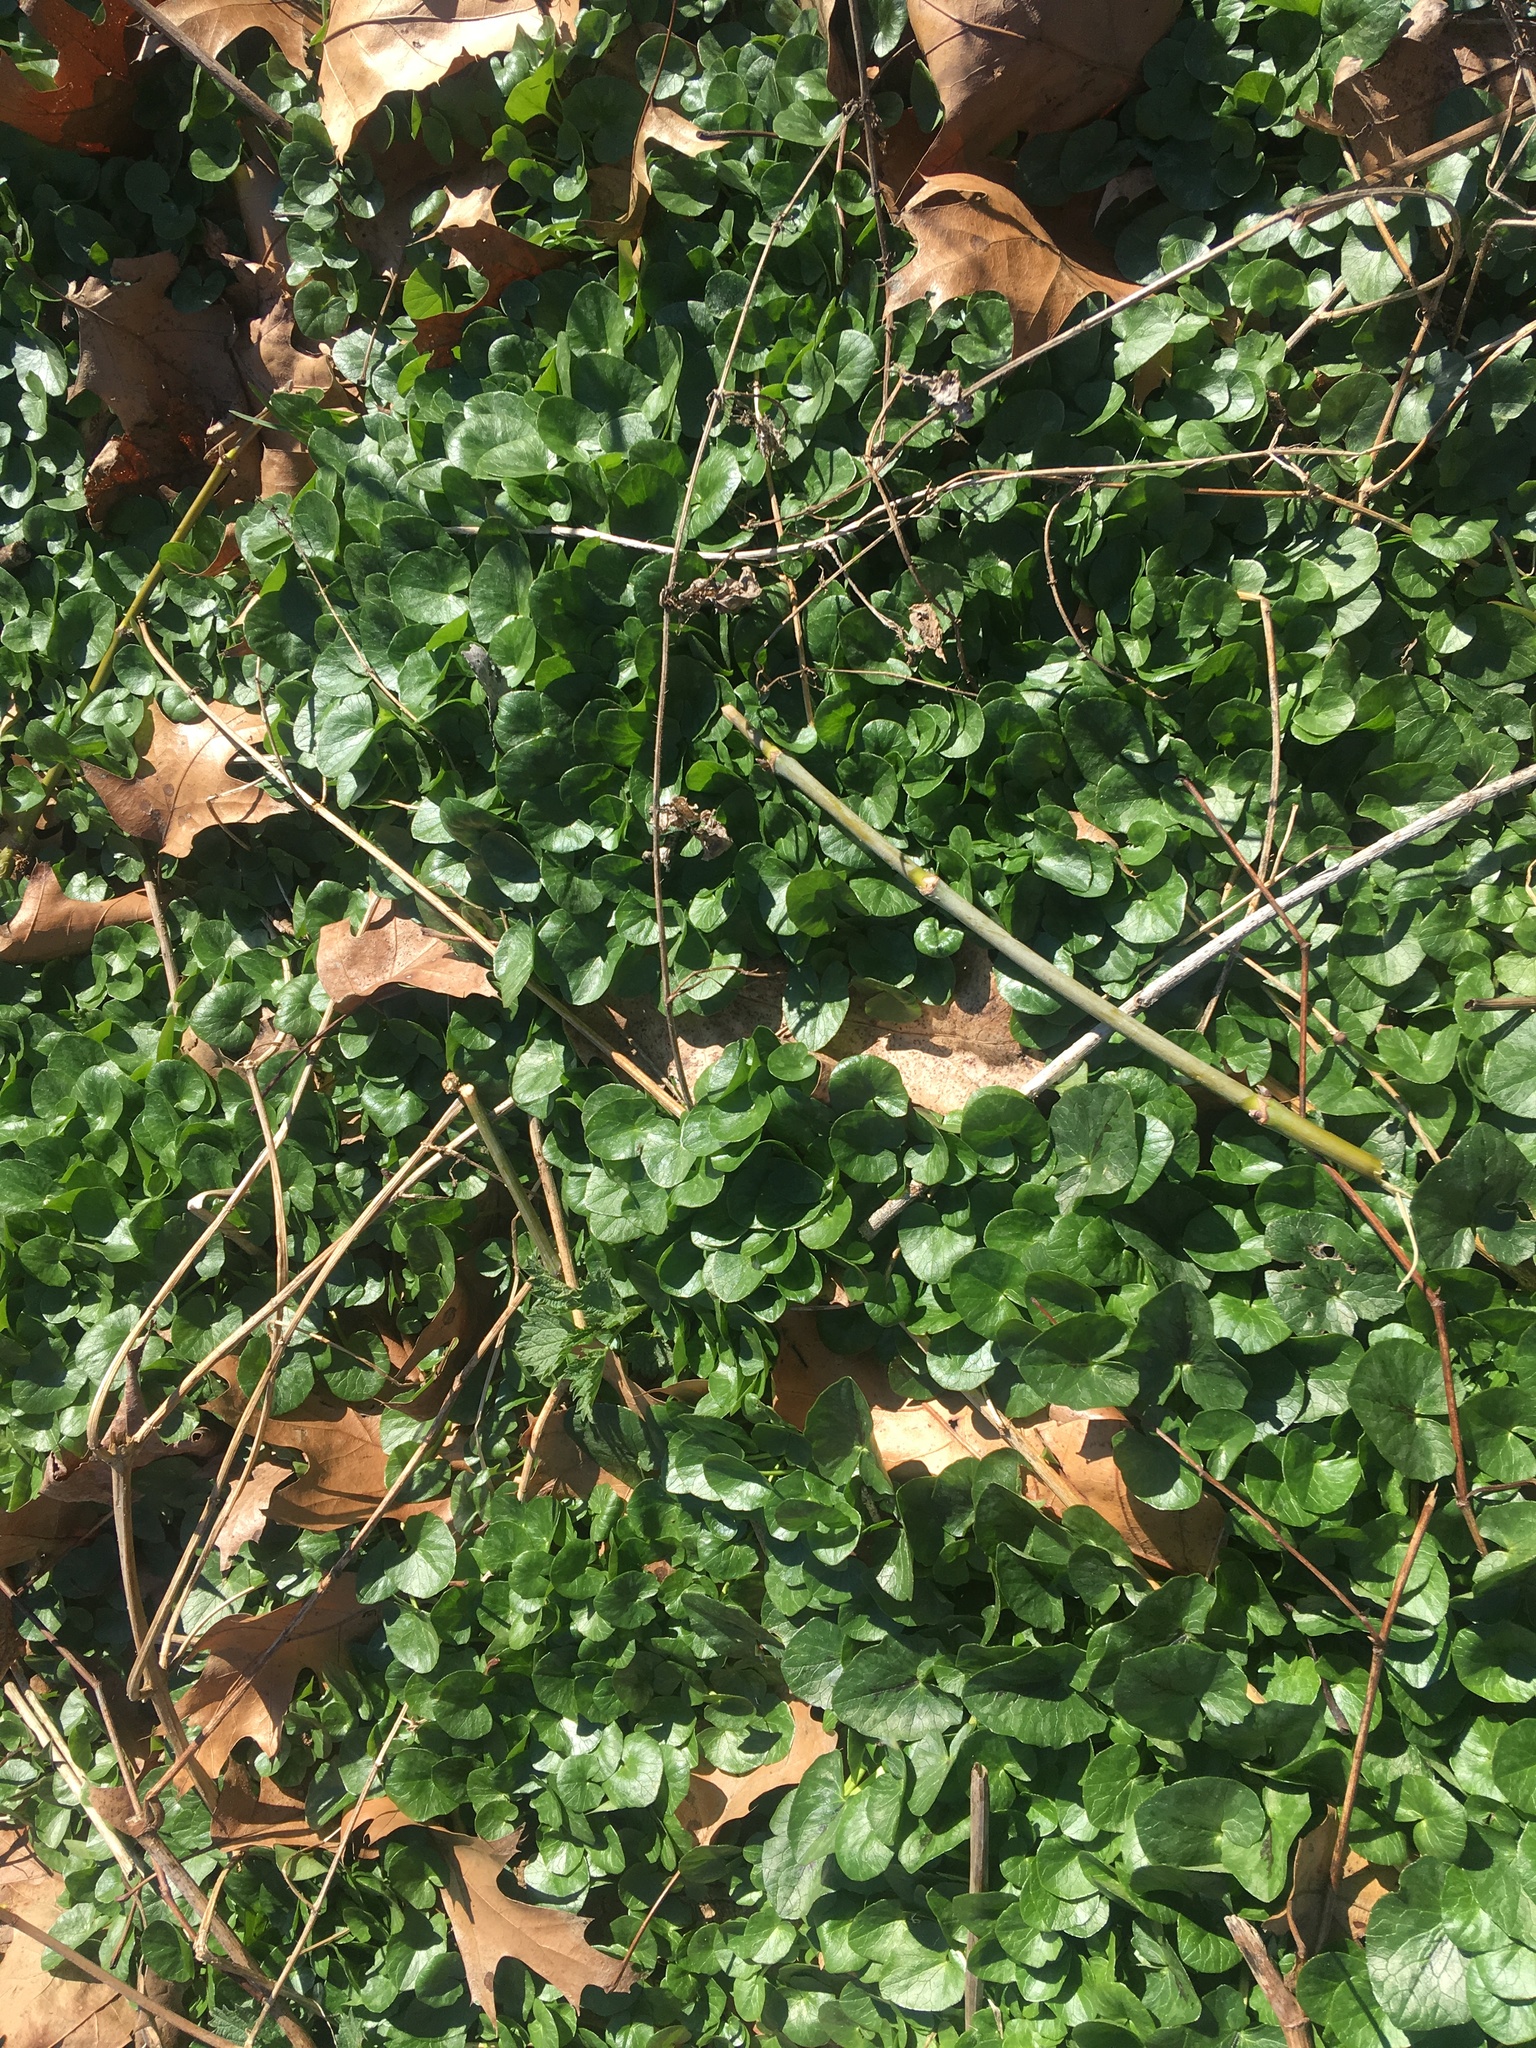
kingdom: Plantae
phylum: Tracheophyta
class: Magnoliopsida
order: Ranunculales
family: Ranunculaceae
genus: Ficaria
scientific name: Ficaria verna
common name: Lesser celandine
